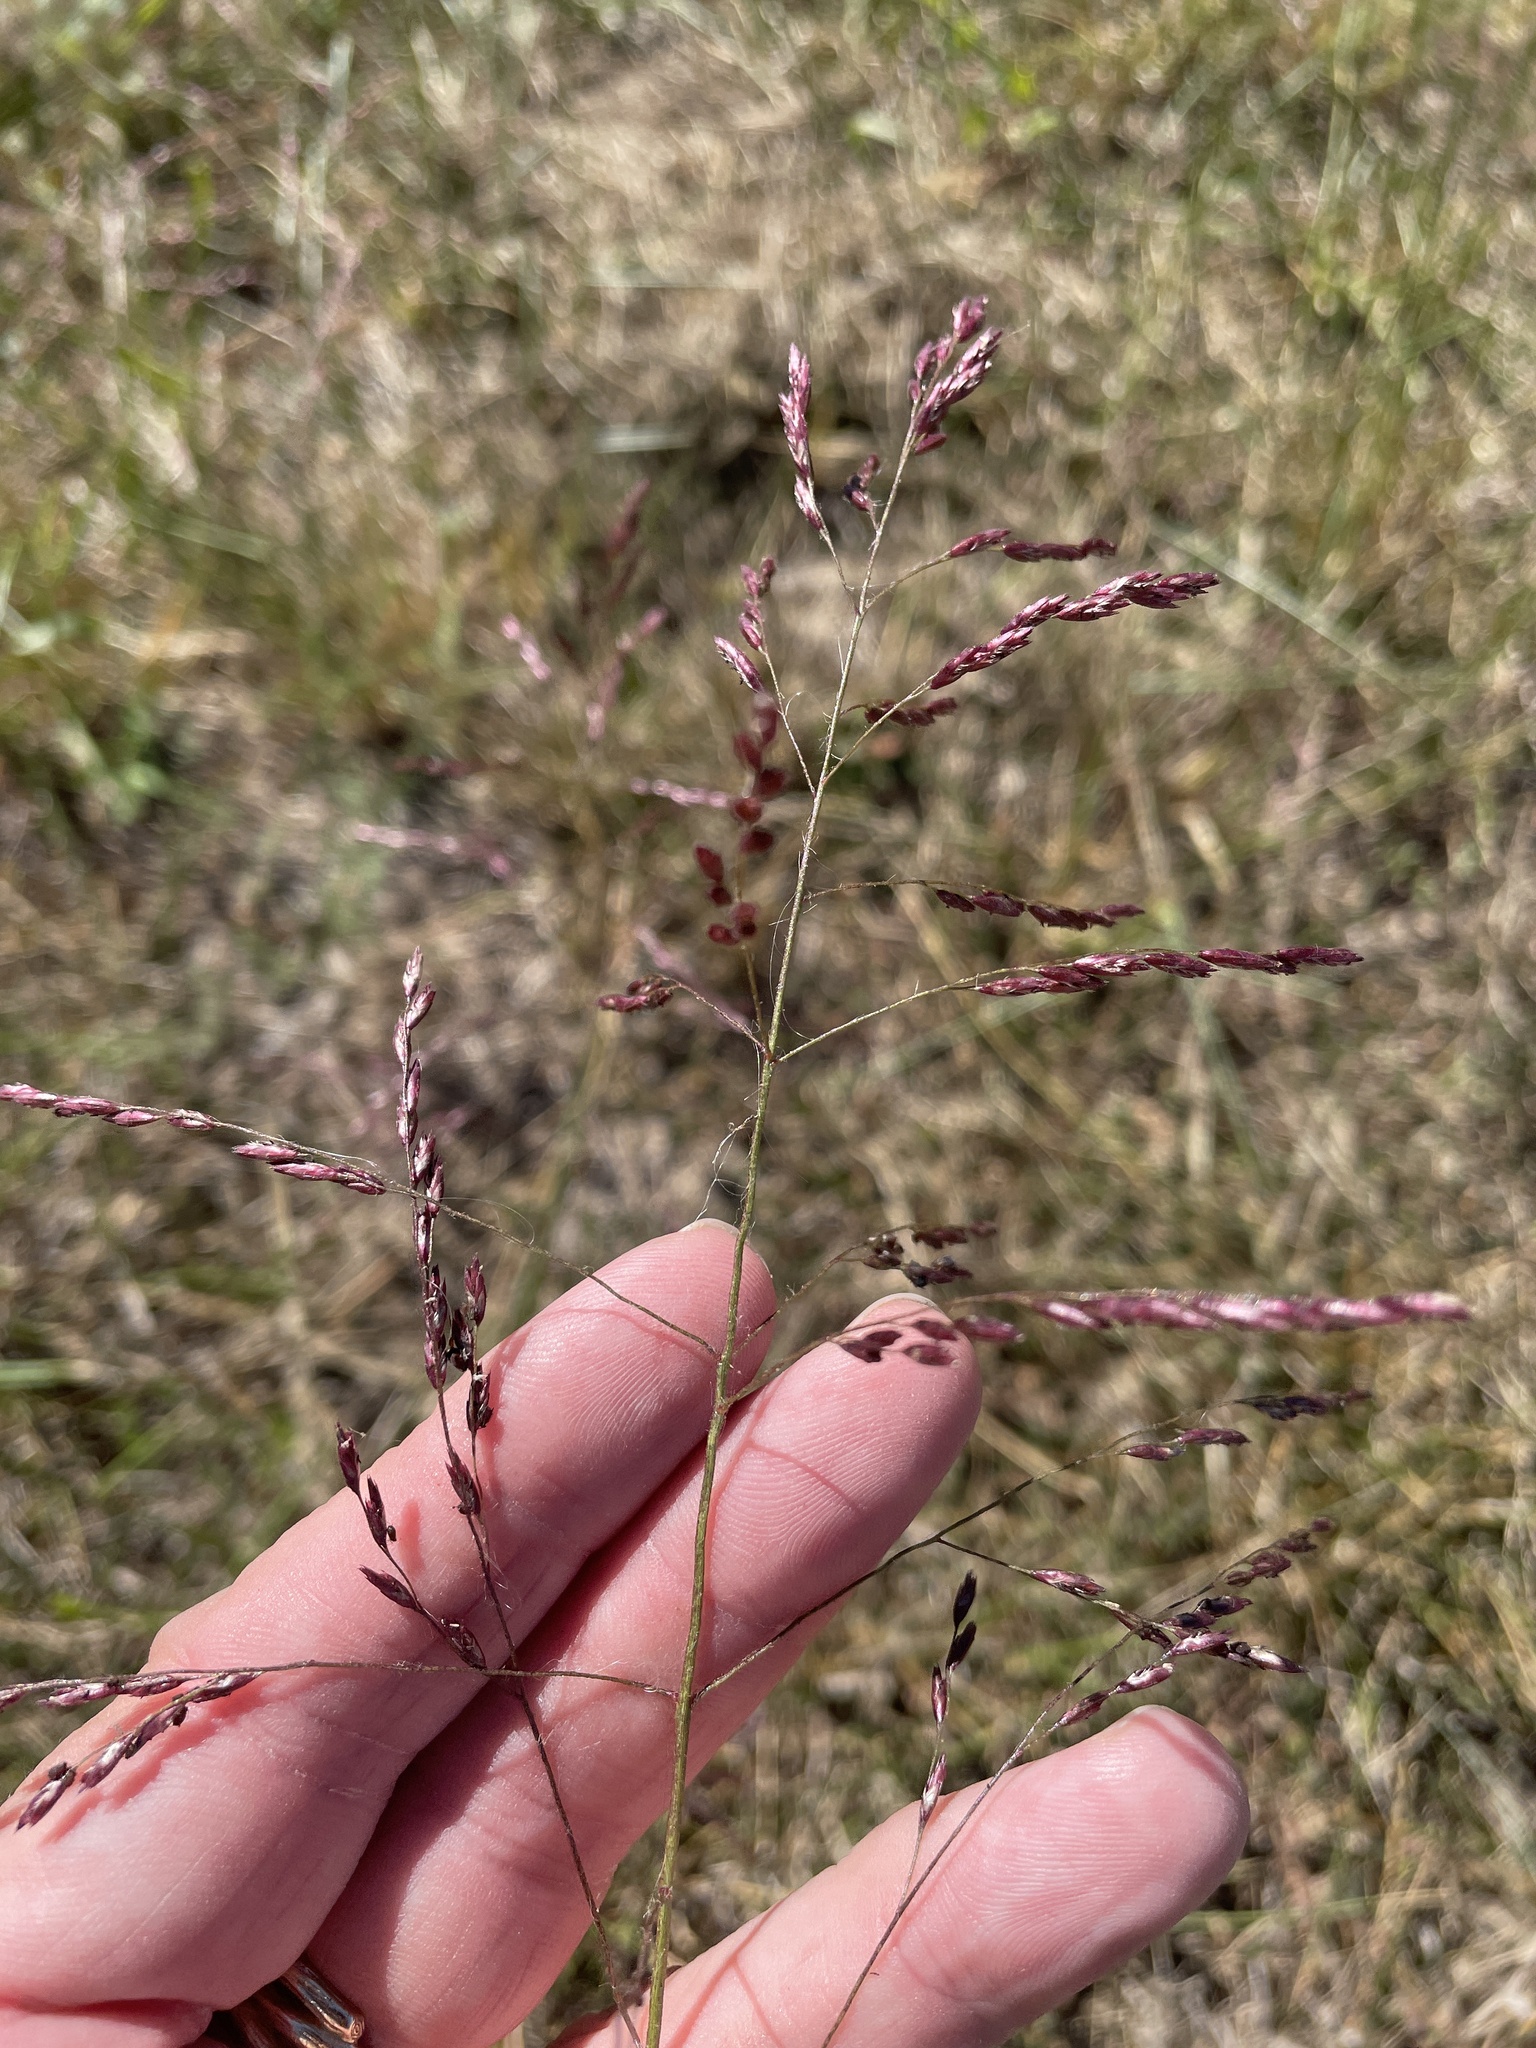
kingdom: Plantae
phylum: Tracheophyta
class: Liliopsida
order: Poales
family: Poaceae
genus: Tridens
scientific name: Tridens flavus
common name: Purpletop
